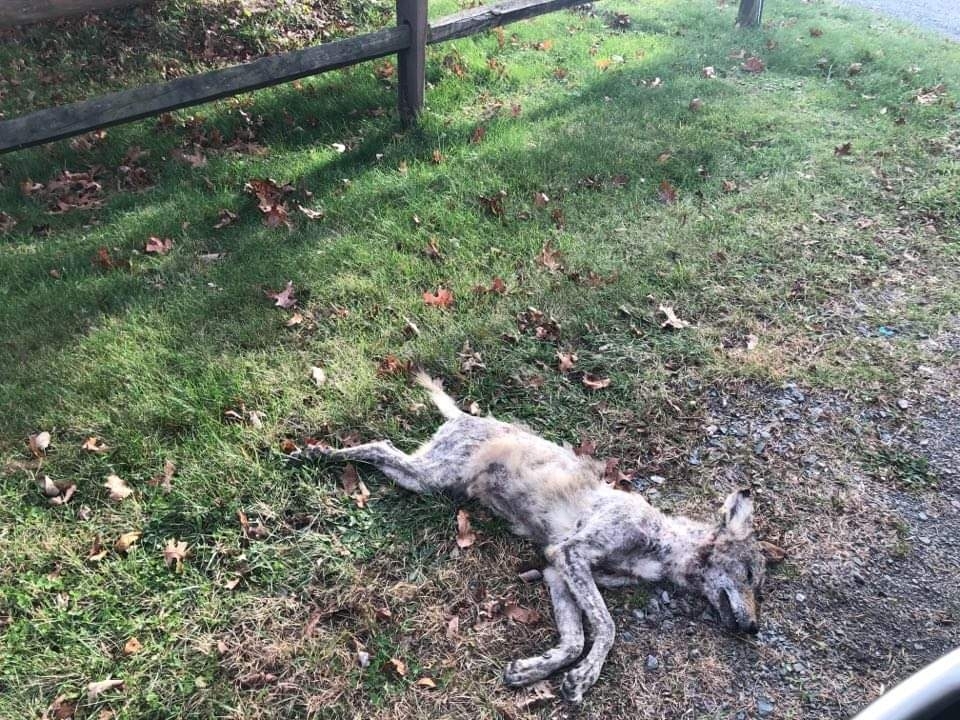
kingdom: Animalia
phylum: Chordata
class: Mammalia
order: Carnivora
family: Canidae
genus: Canis
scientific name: Canis latrans
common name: Coyote
